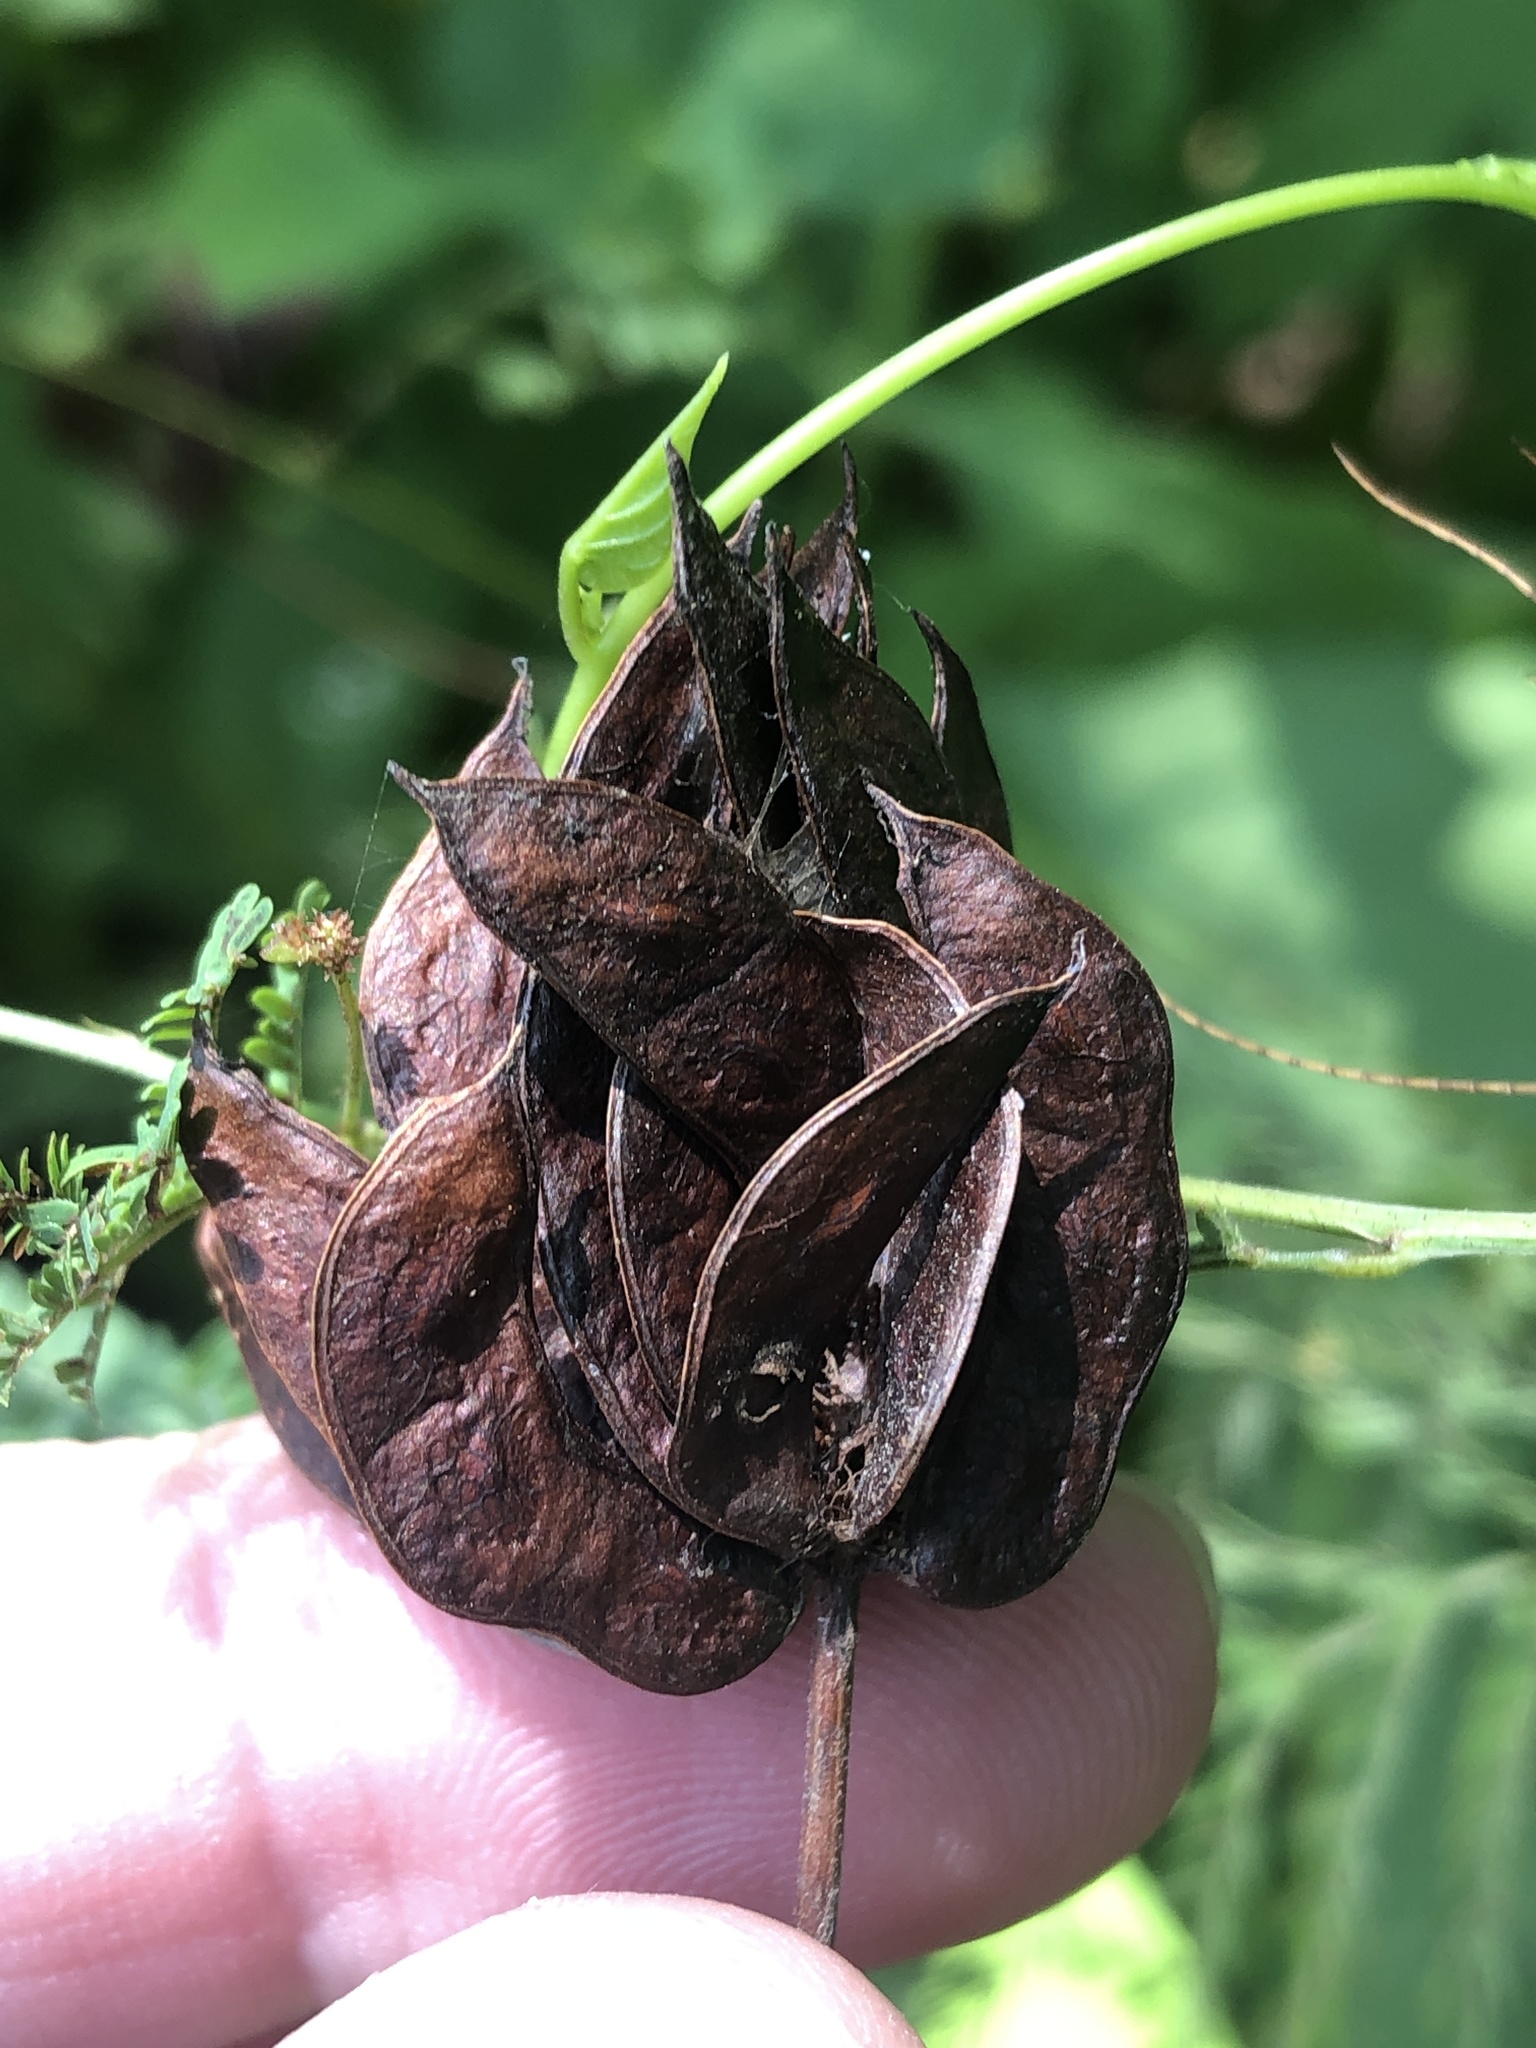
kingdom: Plantae
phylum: Tracheophyta
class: Magnoliopsida
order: Fabales
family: Fabaceae
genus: Desmanthus
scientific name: Desmanthus illinoensis
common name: Illinois bundle-flower
